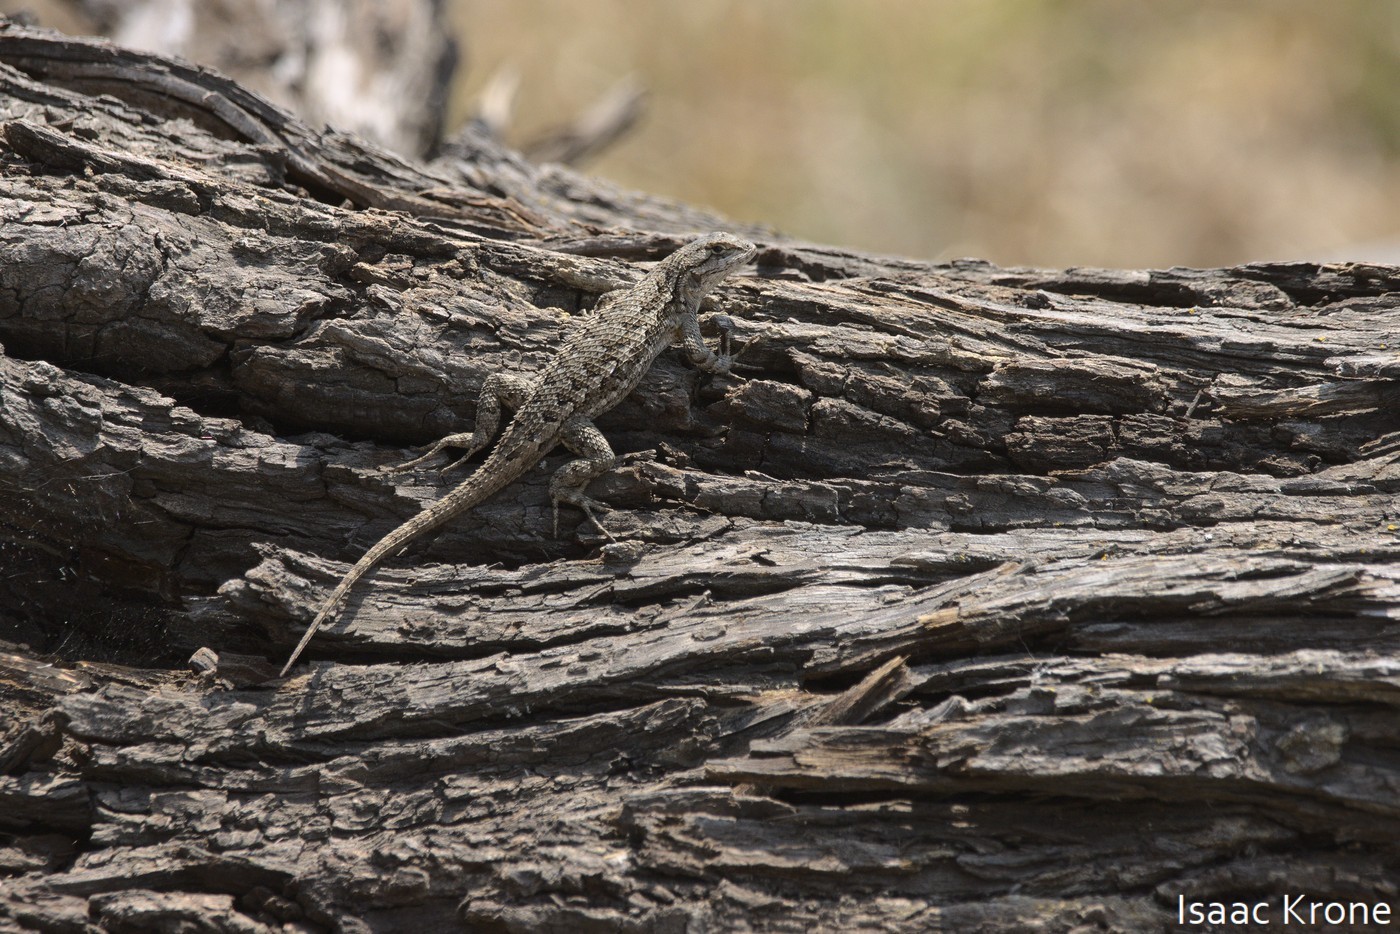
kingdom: Animalia
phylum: Chordata
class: Squamata
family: Phrynosomatidae
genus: Sceloporus
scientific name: Sceloporus occidentalis
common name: Western fence lizard
